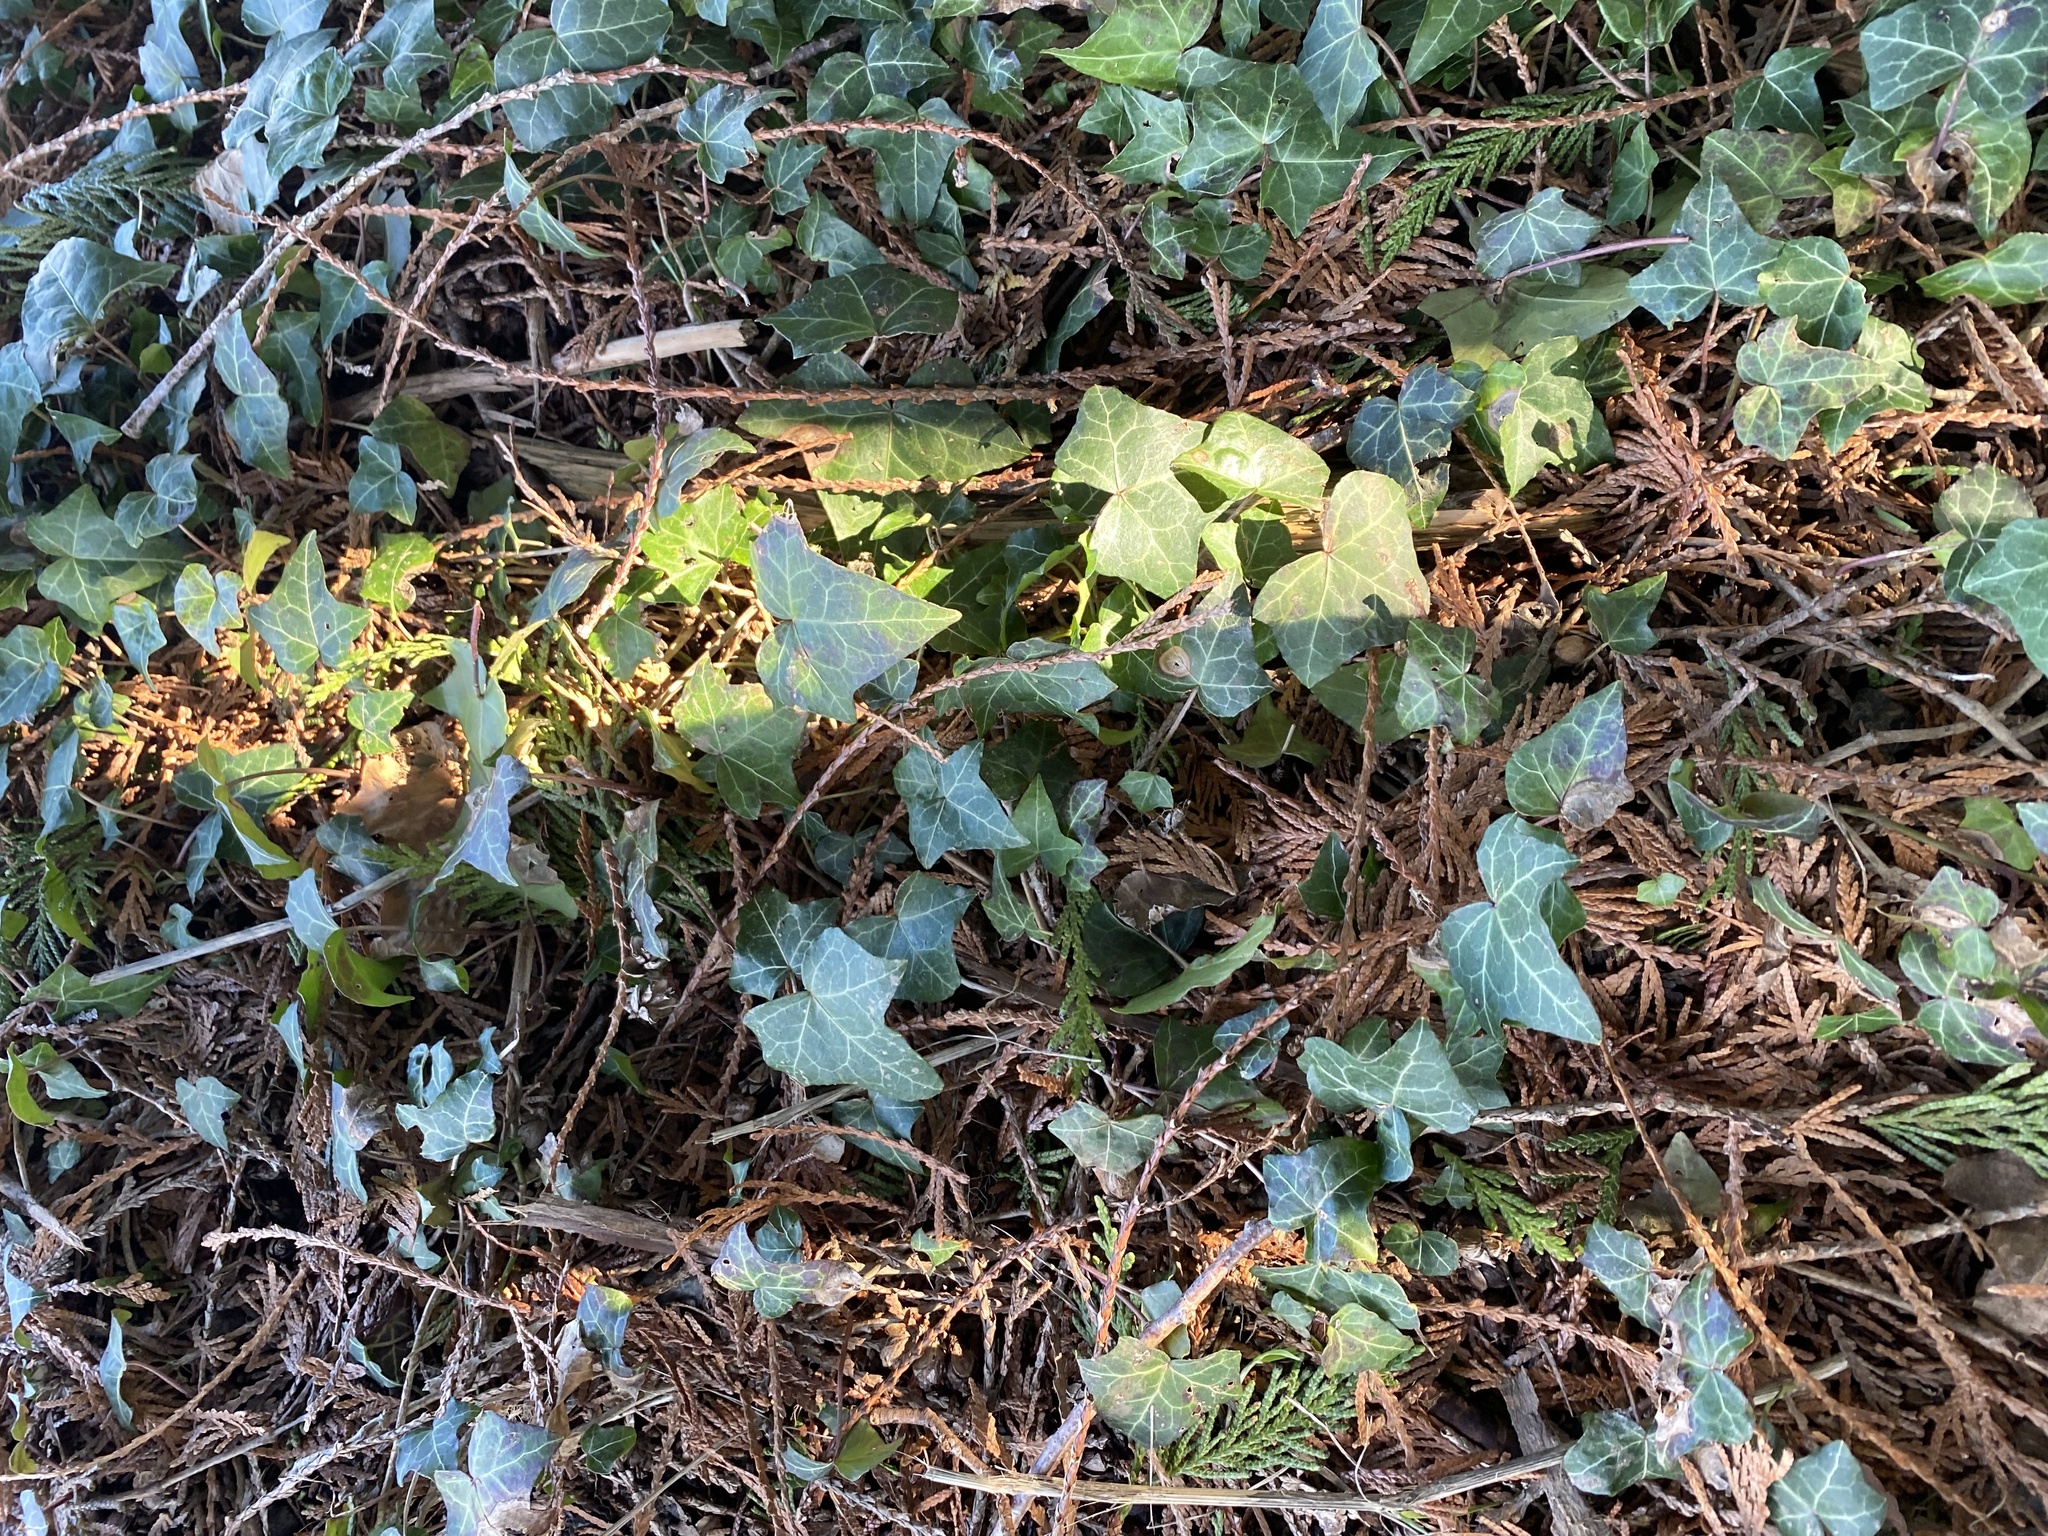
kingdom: Plantae
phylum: Tracheophyta
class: Magnoliopsida
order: Apiales
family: Araliaceae
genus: Hedera
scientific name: Hedera helix
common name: Ivy
